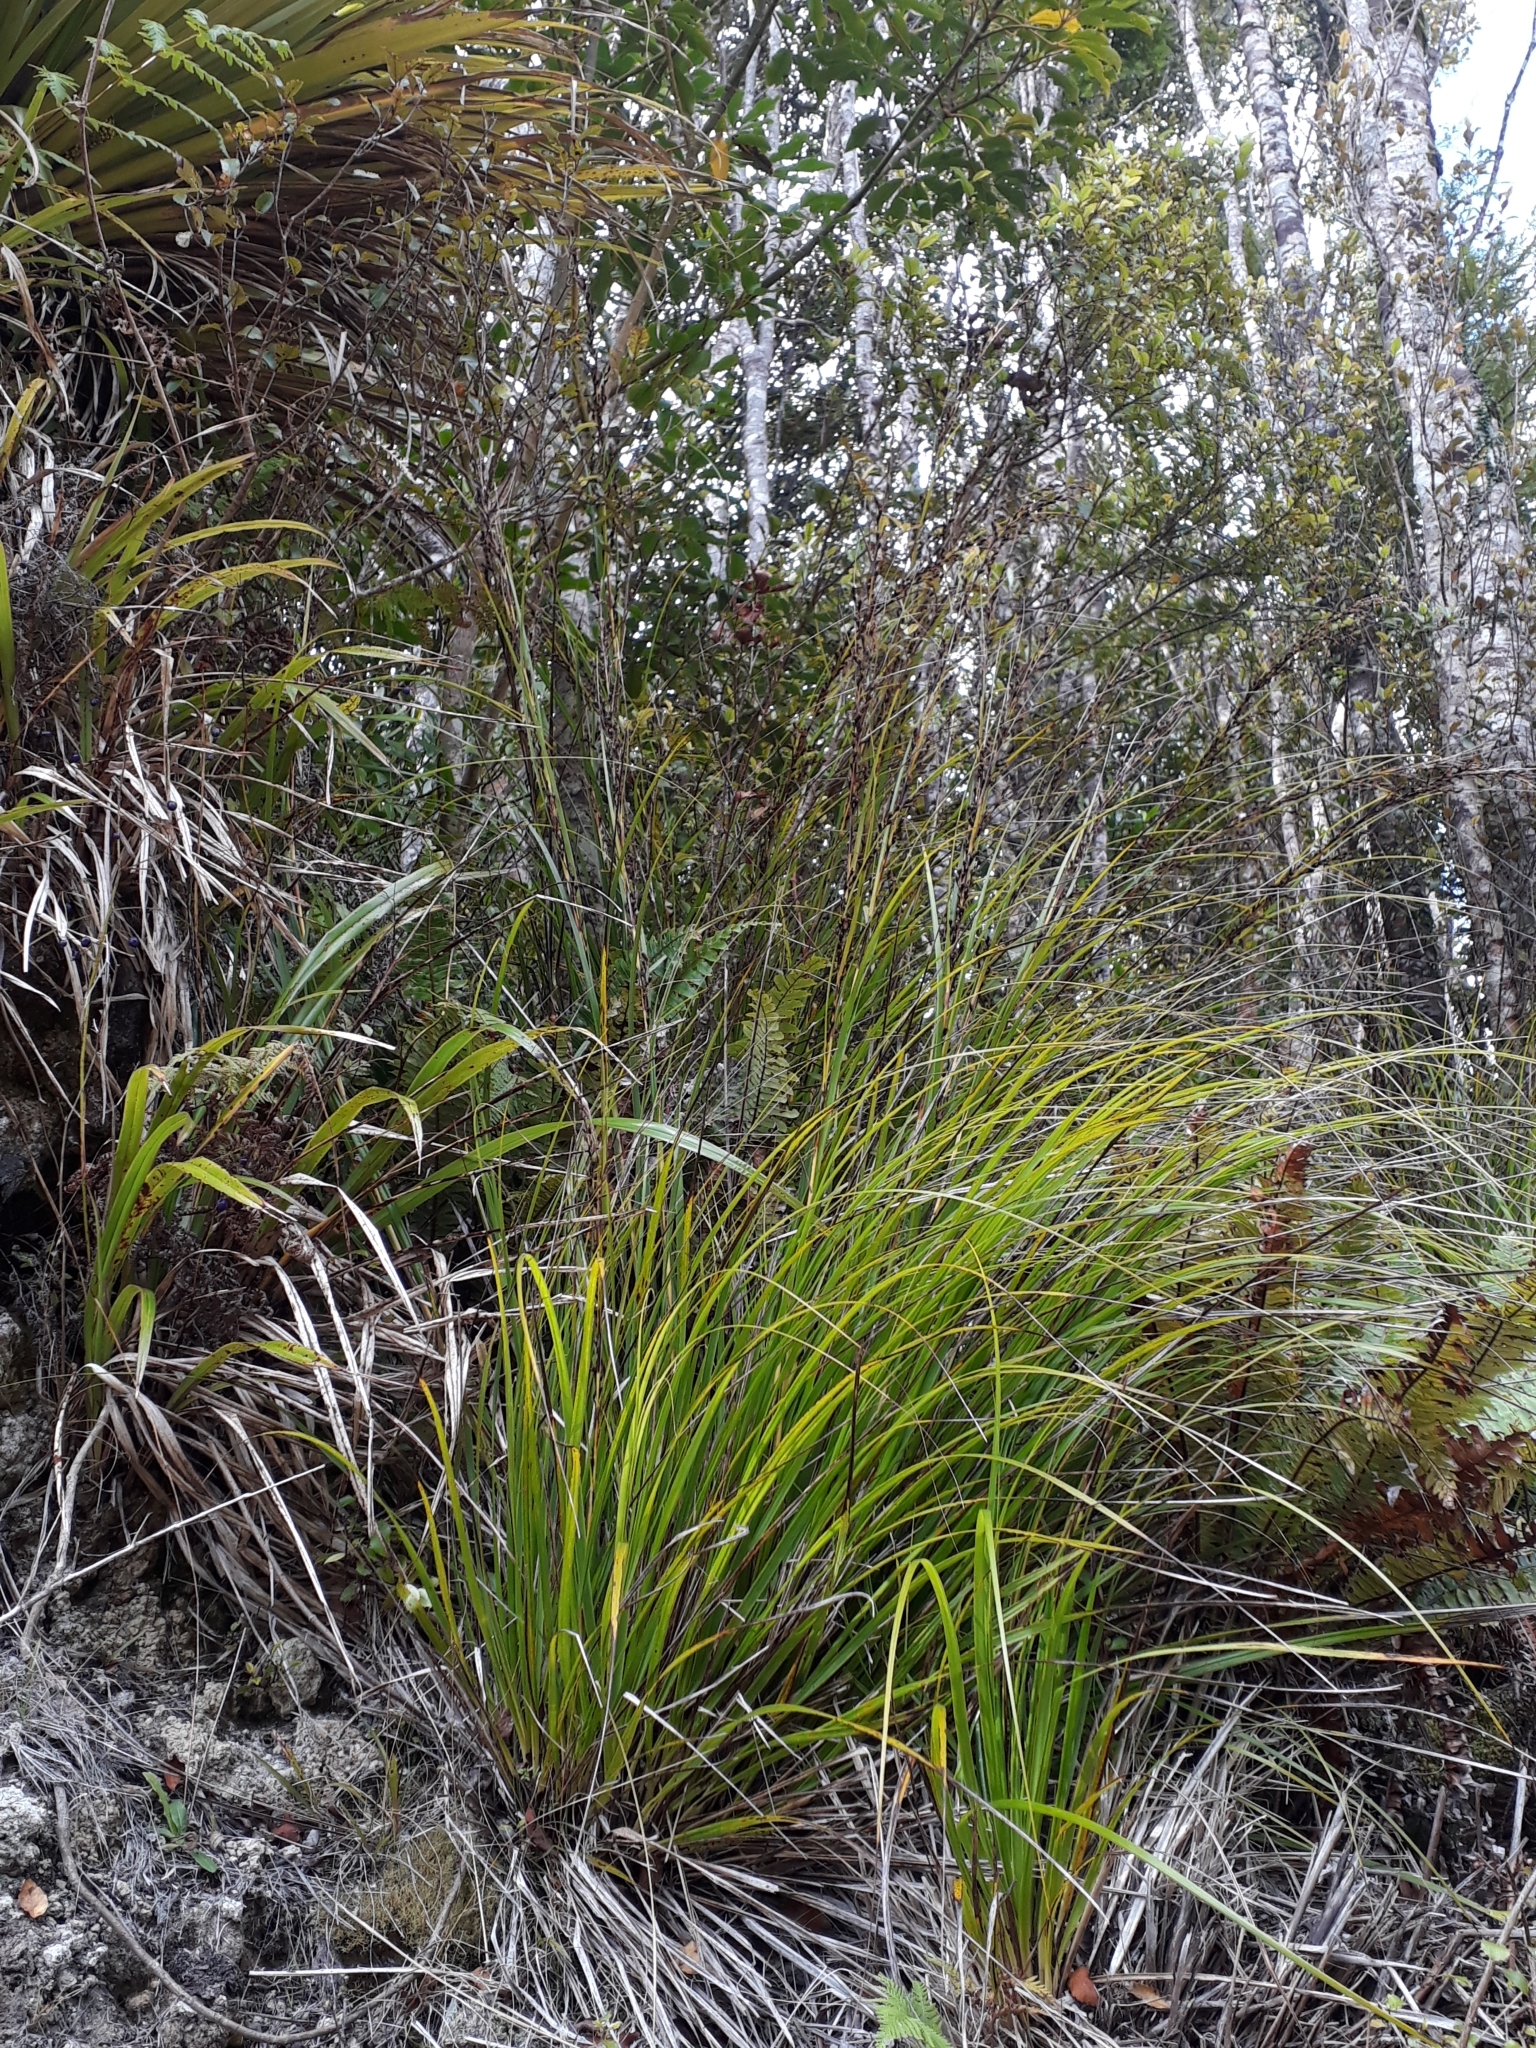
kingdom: Plantae
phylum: Tracheophyta
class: Liliopsida
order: Poales
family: Cyperaceae
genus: Gahnia
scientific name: Gahnia pauciflora
